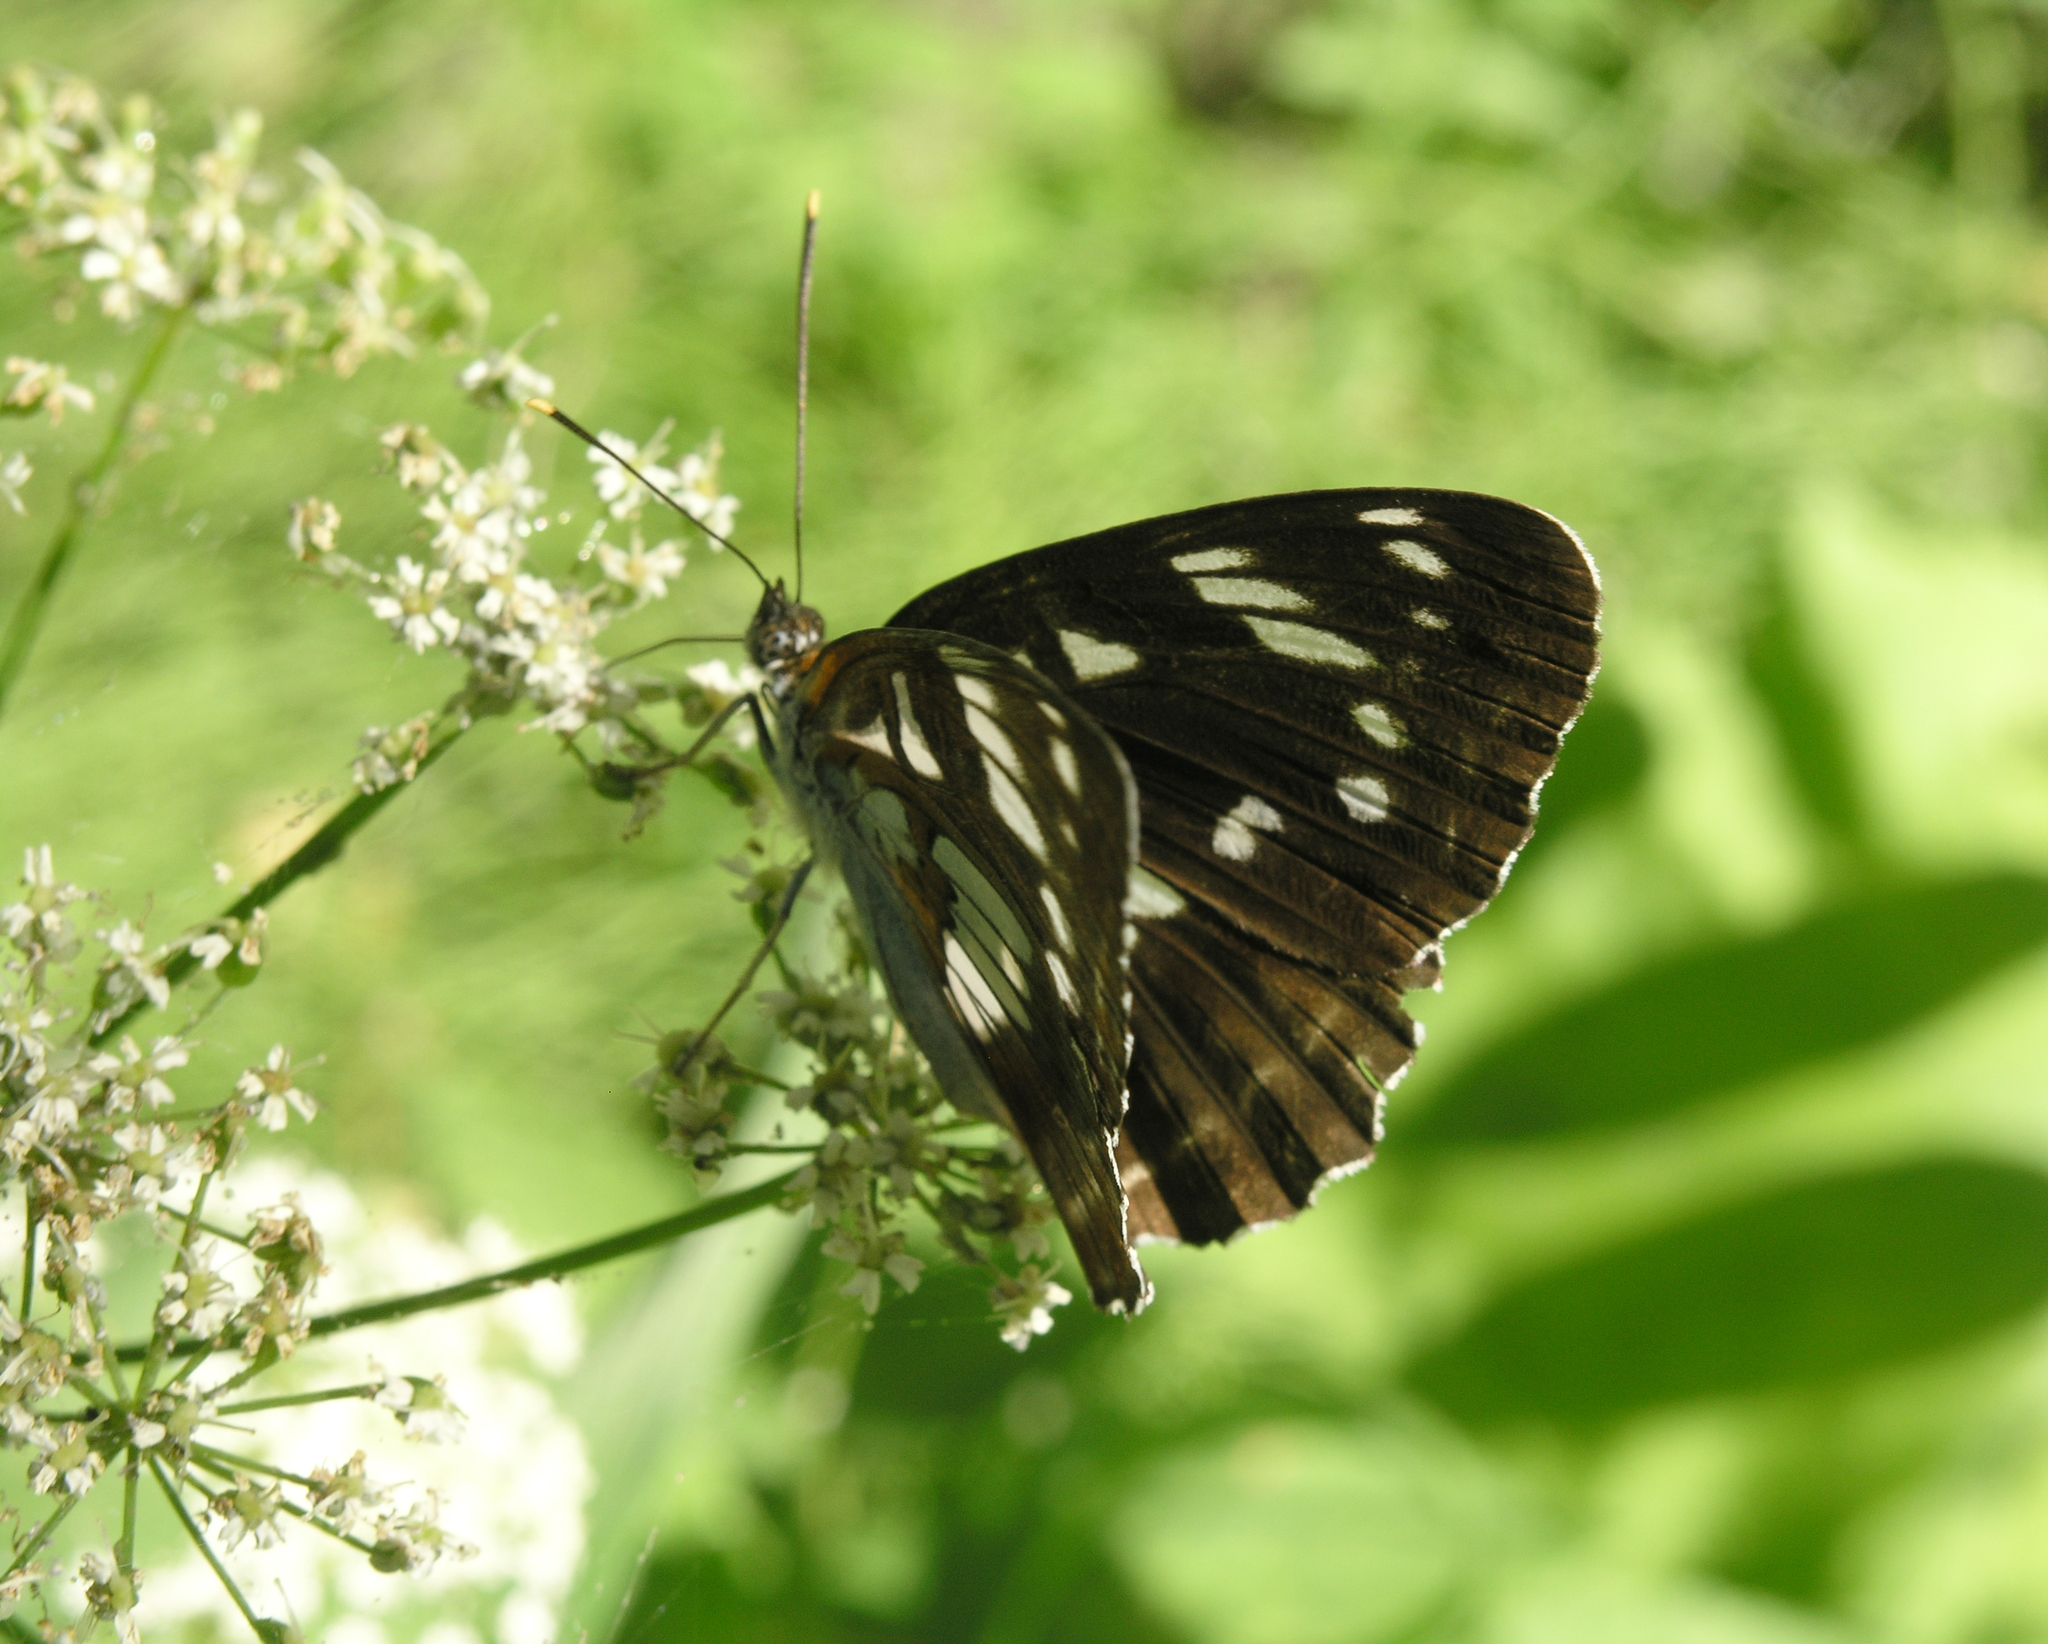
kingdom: Animalia
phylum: Arthropoda
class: Insecta
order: Lepidoptera
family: Nymphalidae
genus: Limenitis
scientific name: Limenitis helmanni
